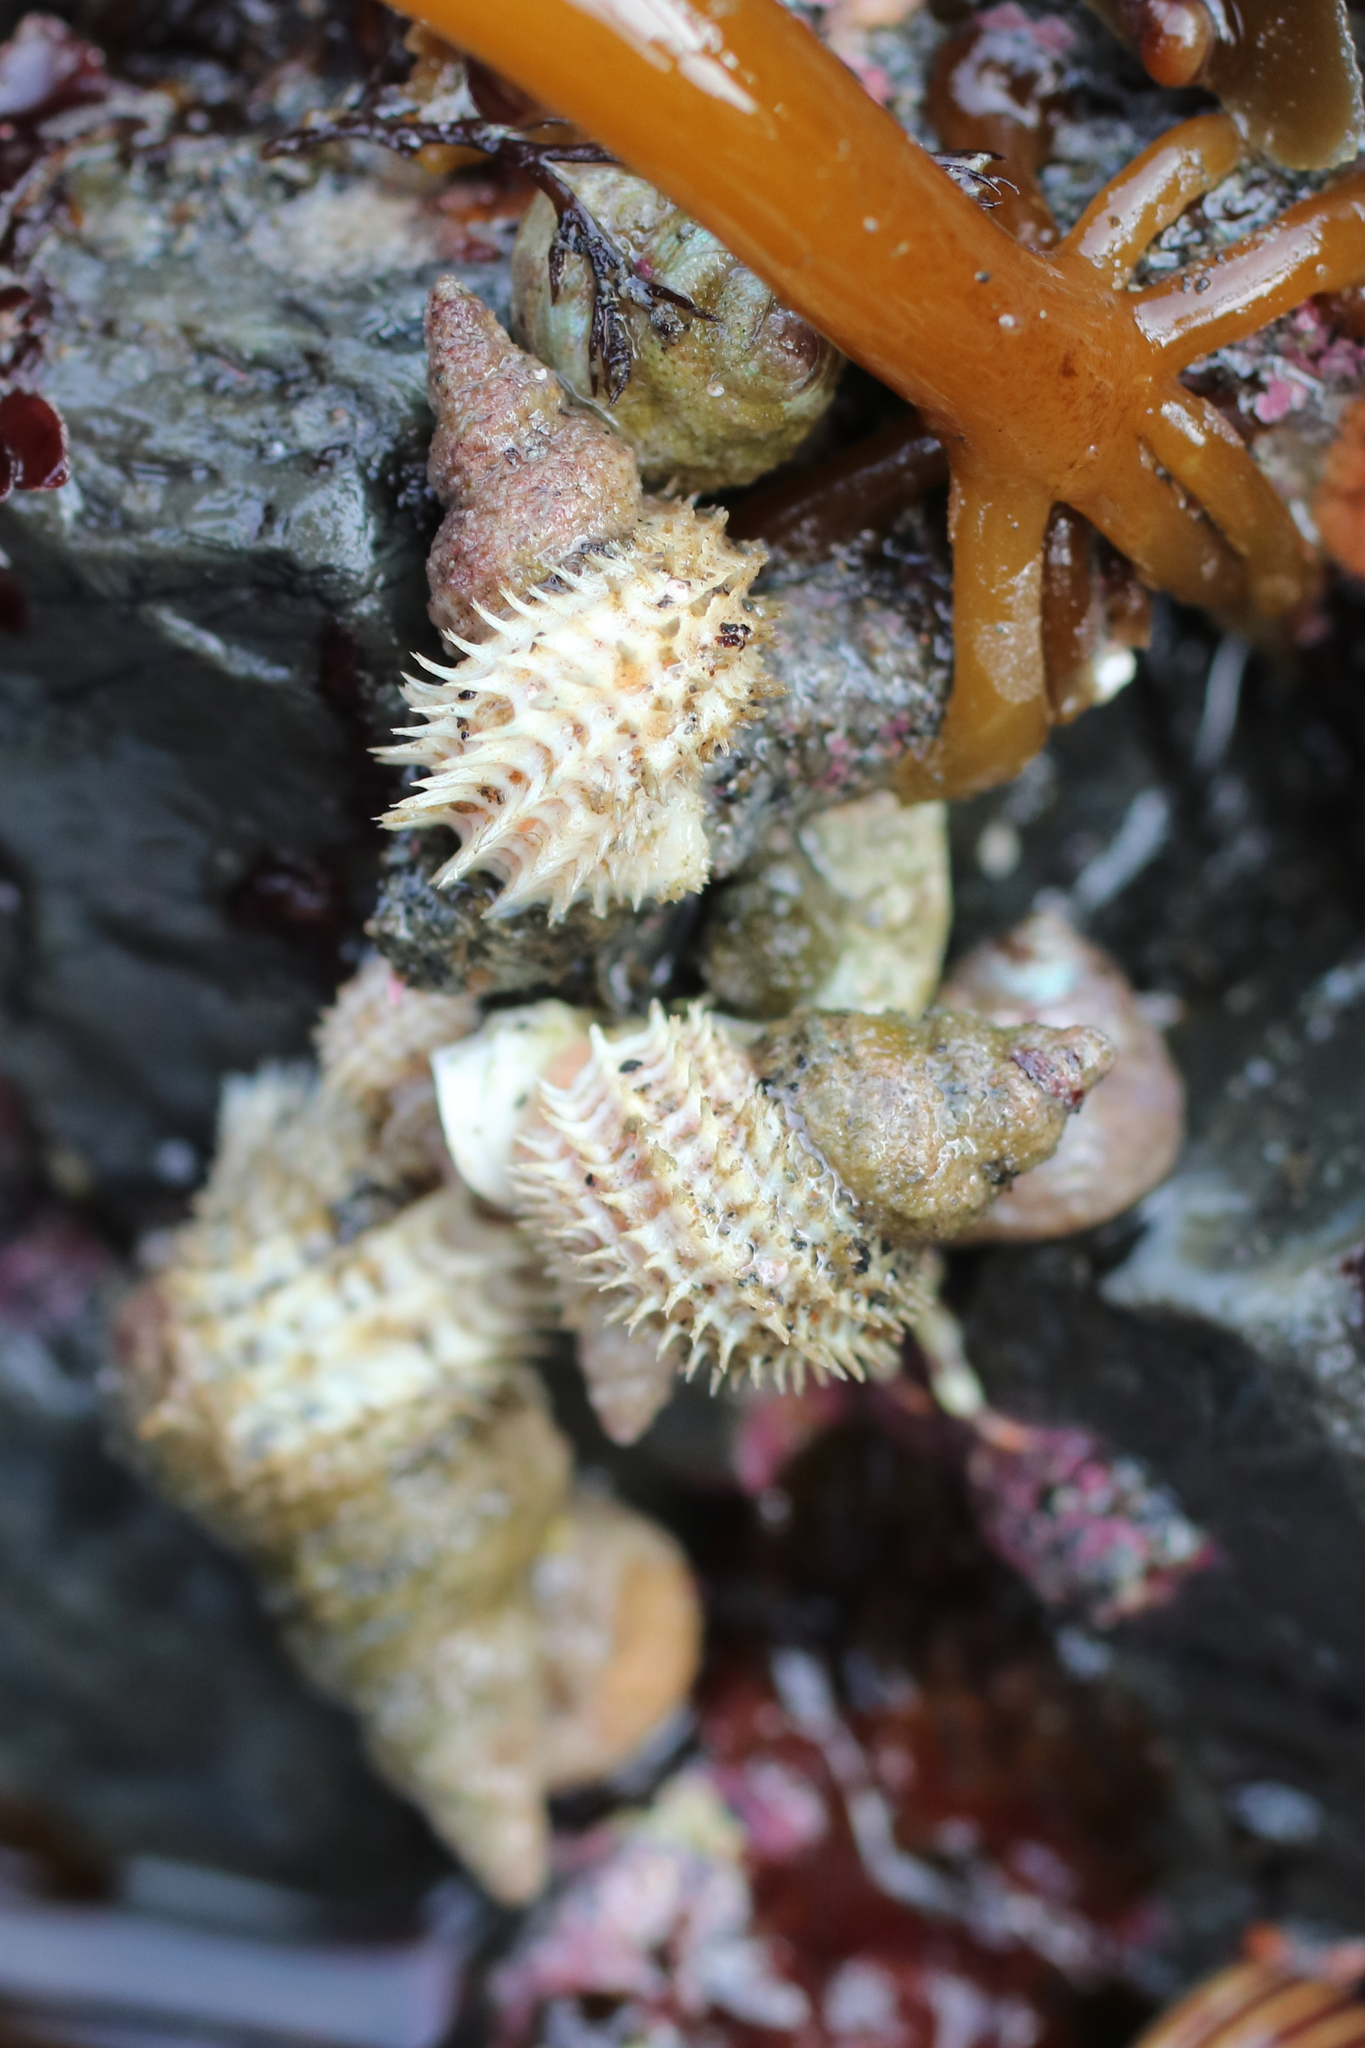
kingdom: Animalia
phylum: Mollusca
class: Gastropoda
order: Littorinimorpha
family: Capulidae
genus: Trichotropis
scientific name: Trichotropis cancellata
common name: Cancellate hairysnail
